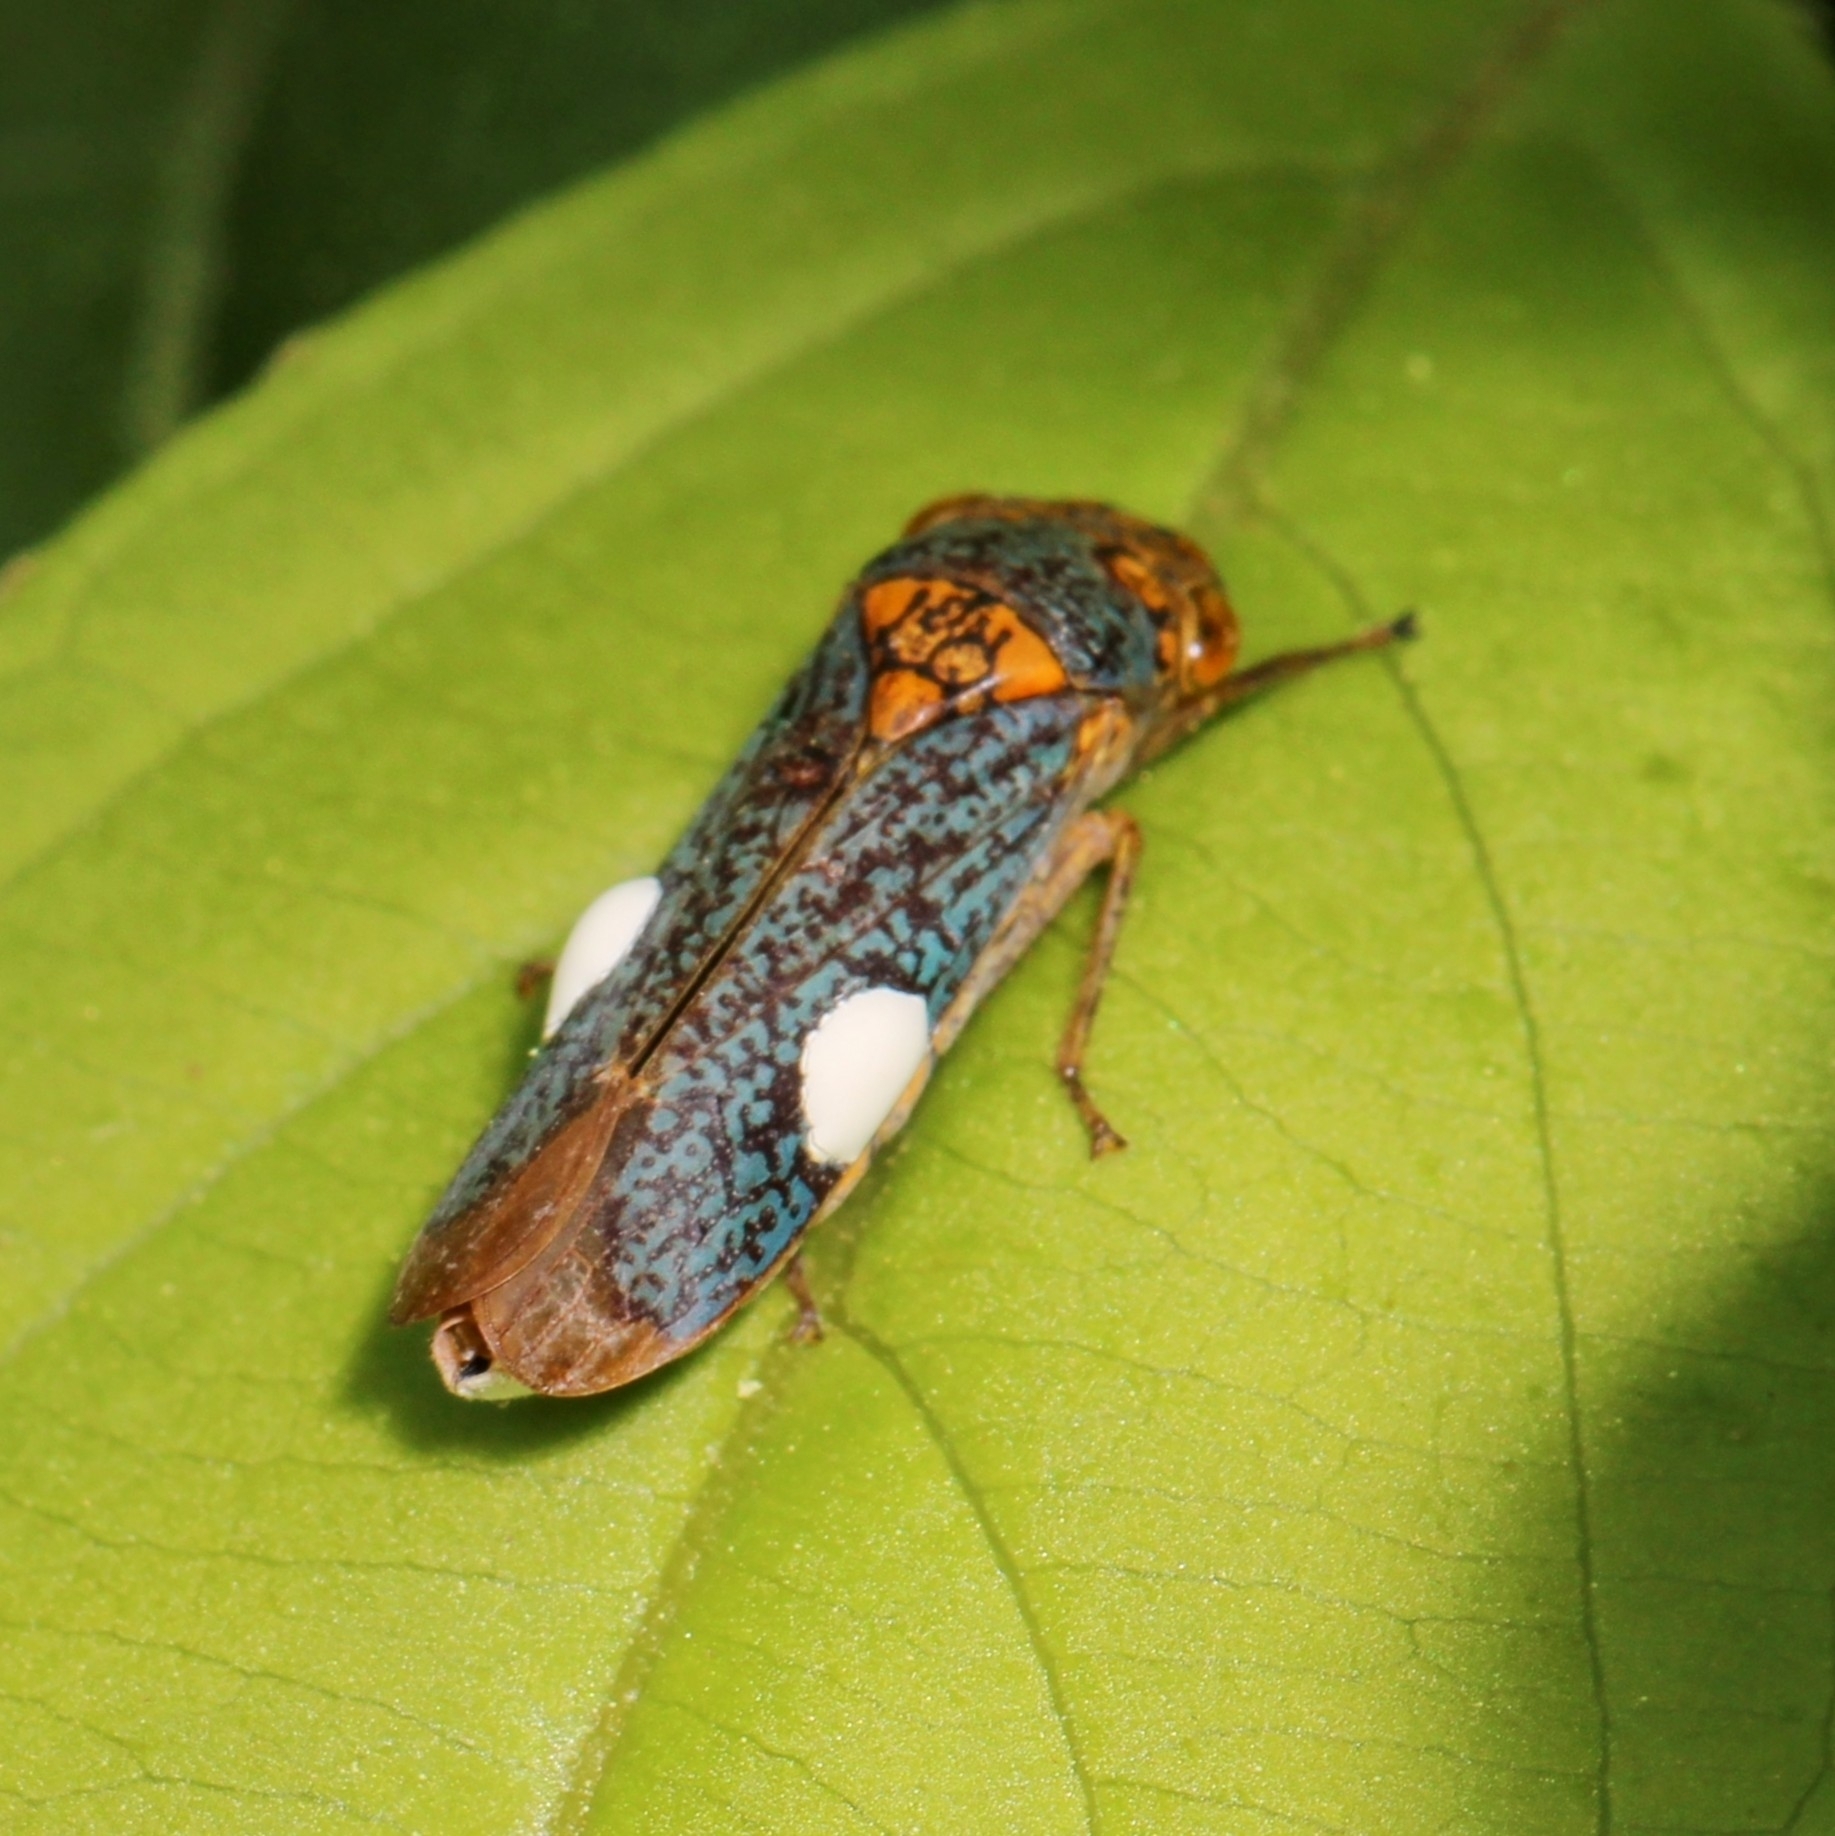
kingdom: Animalia
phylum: Arthropoda
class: Insecta
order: Hemiptera
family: Cicadellidae
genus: Oncometopia
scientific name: Oncometopia orbona
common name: Broad-headed sharpshooter
